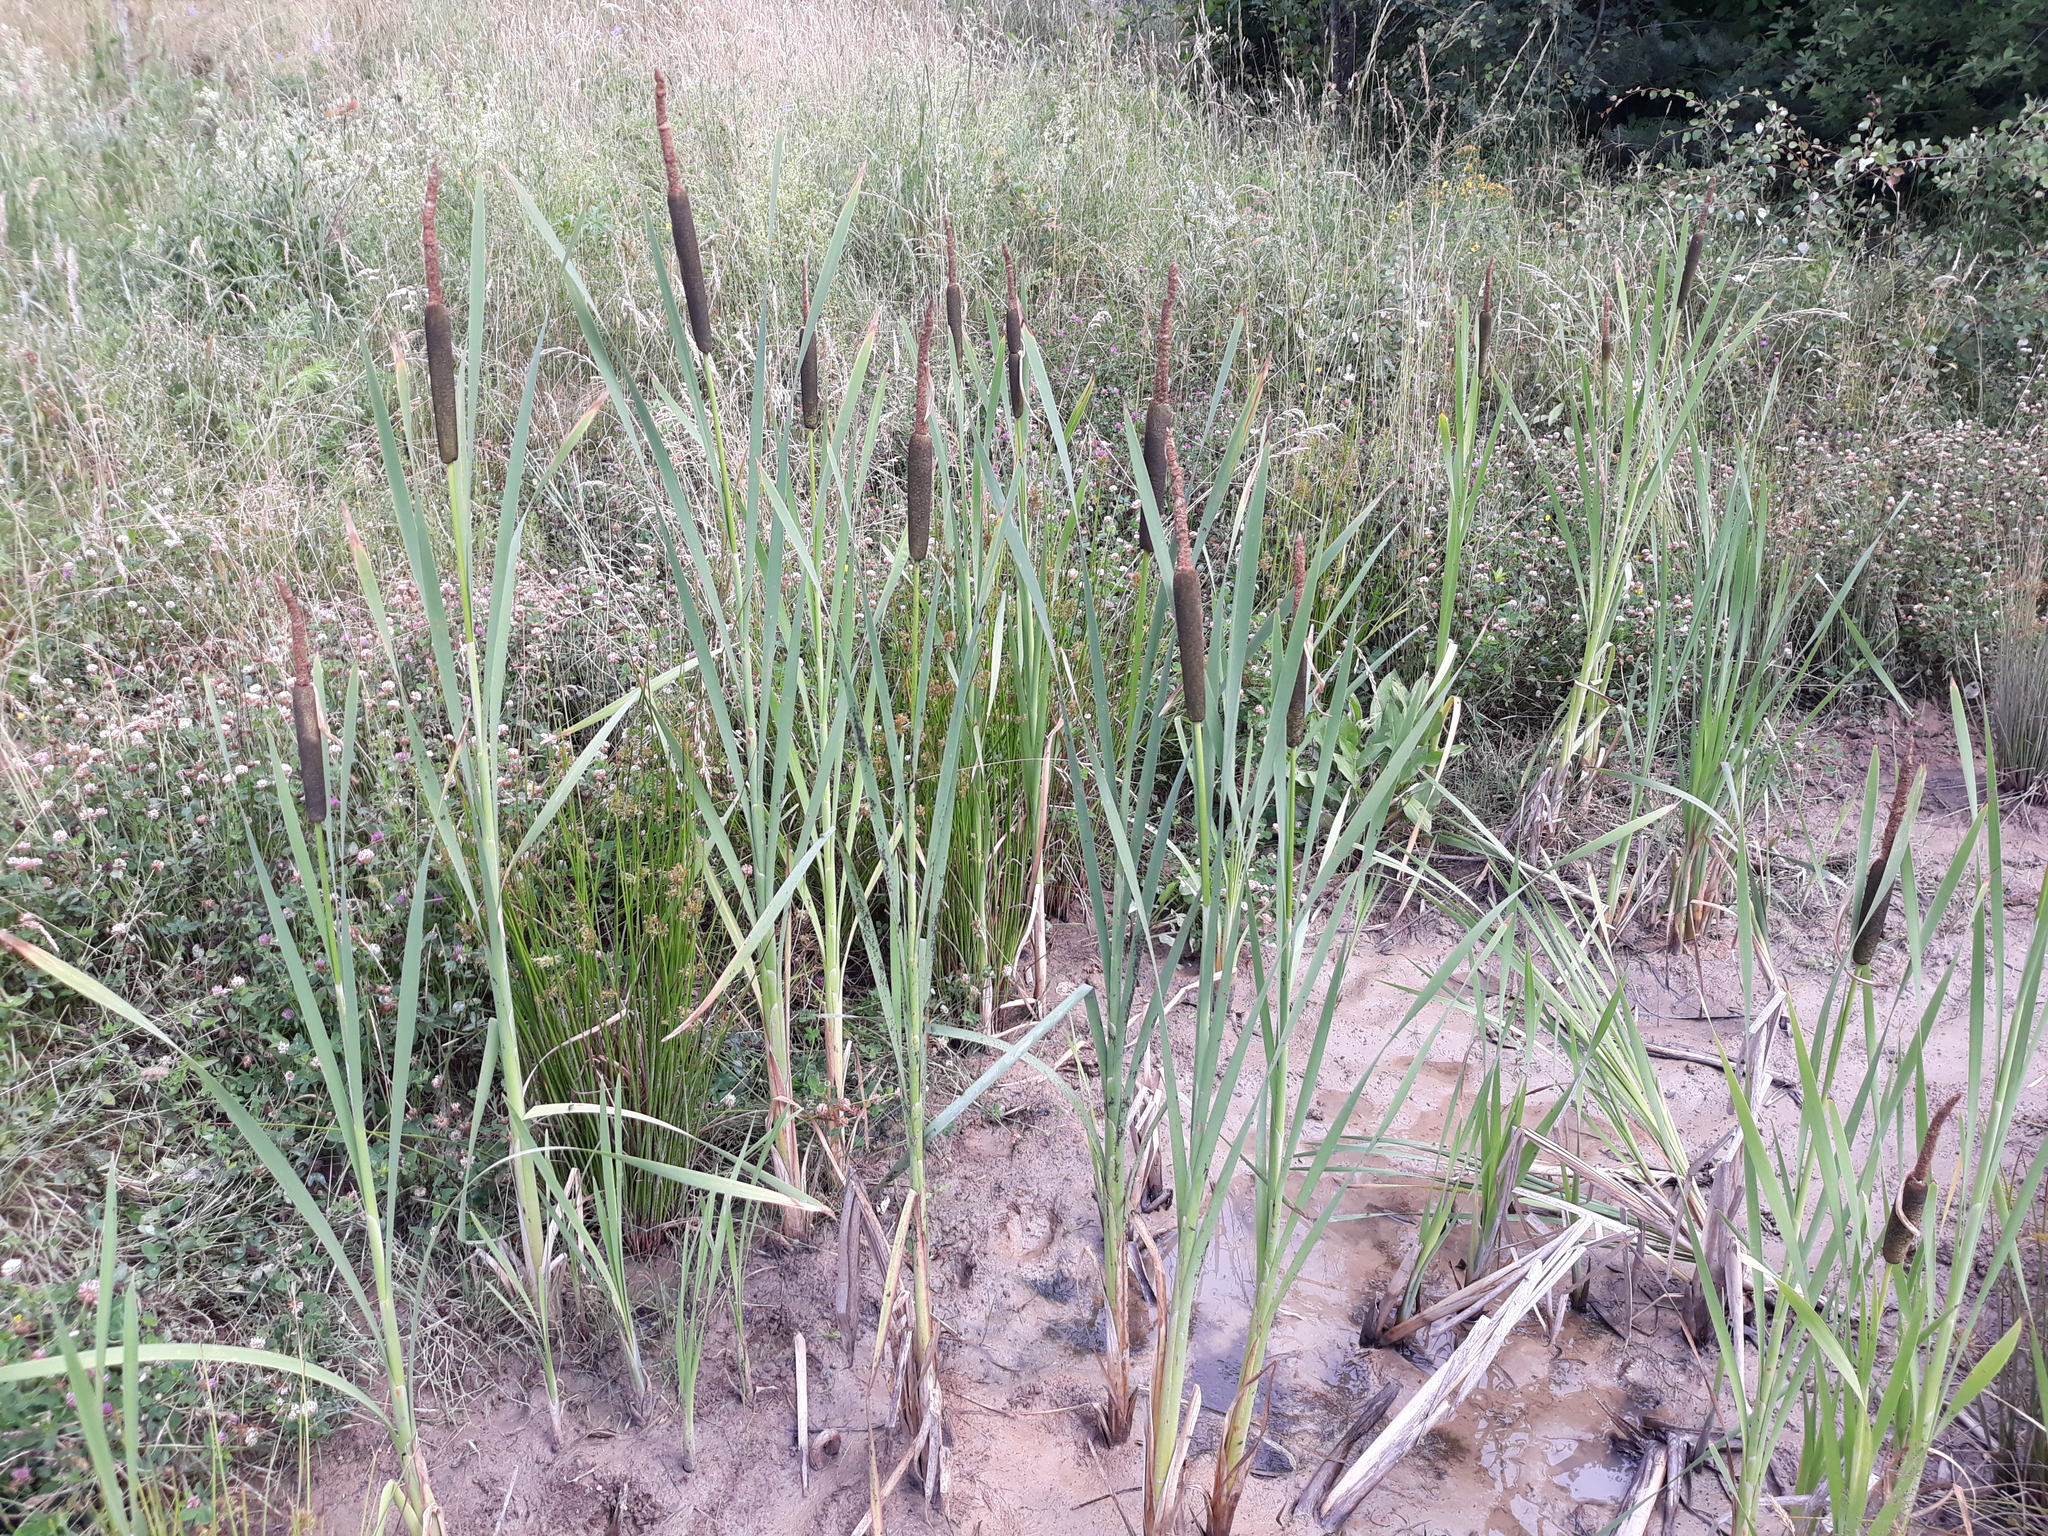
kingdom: Plantae
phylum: Tracheophyta
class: Liliopsida
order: Poales
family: Typhaceae
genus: Typha
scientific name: Typha latifolia
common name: Broadleaf cattail
